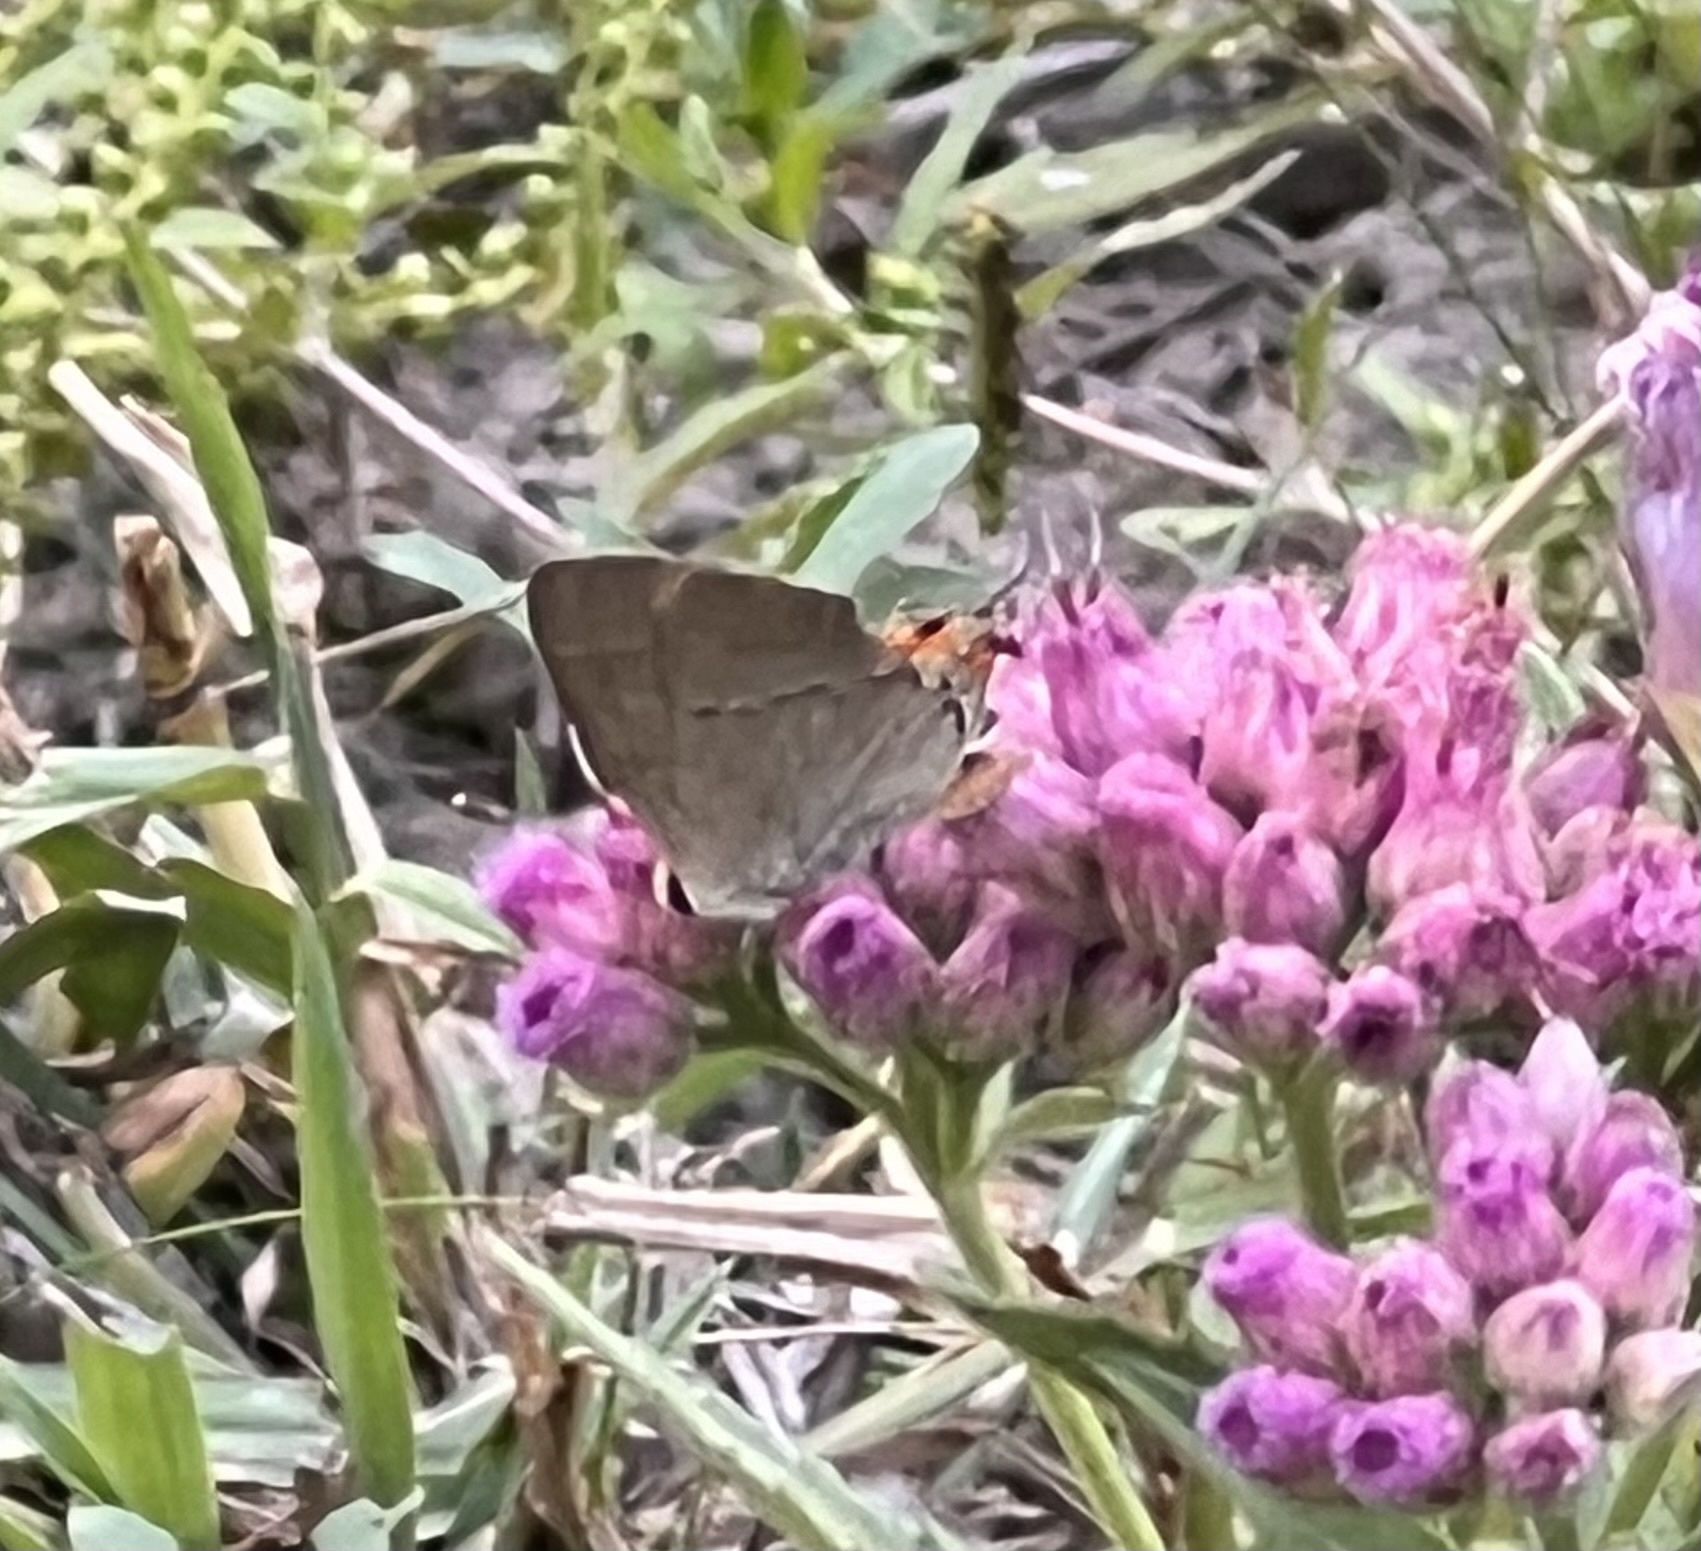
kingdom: Animalia
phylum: Arthropoda
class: Insecta
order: Lepidoptera
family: Lycaenidae
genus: Strymon
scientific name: Strymon melinus
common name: Gray hairstreak
